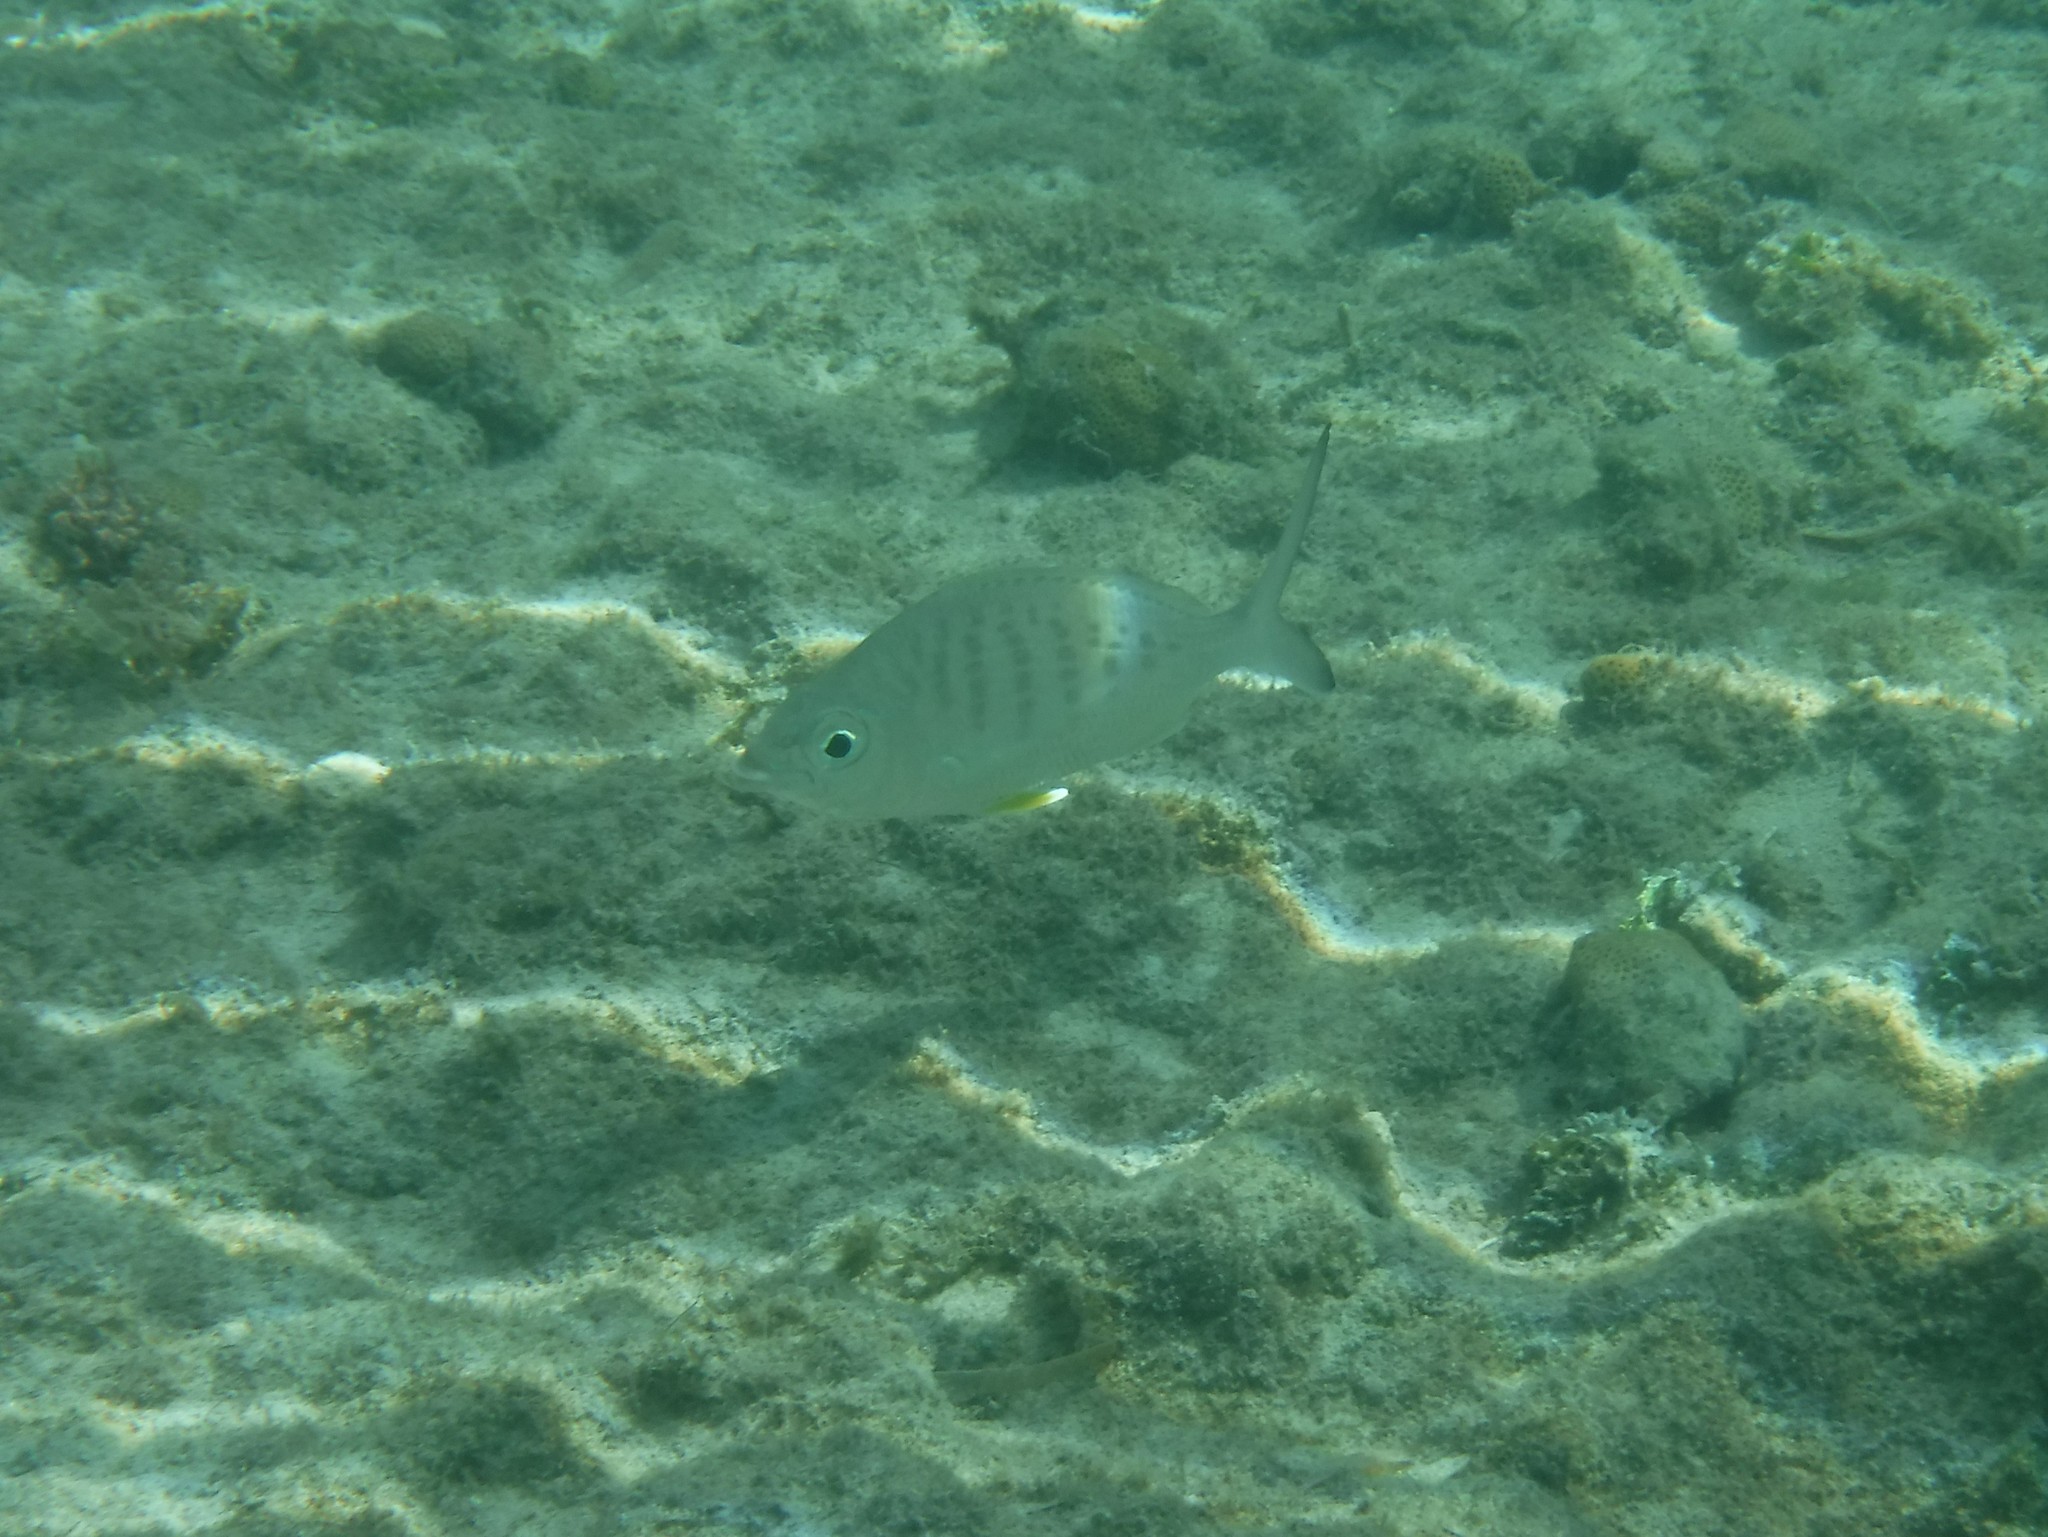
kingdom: Animalia
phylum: Chordata
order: Perciformes
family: Gerreidae
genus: Gerres
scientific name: Gerres cinereus
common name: Hedow
